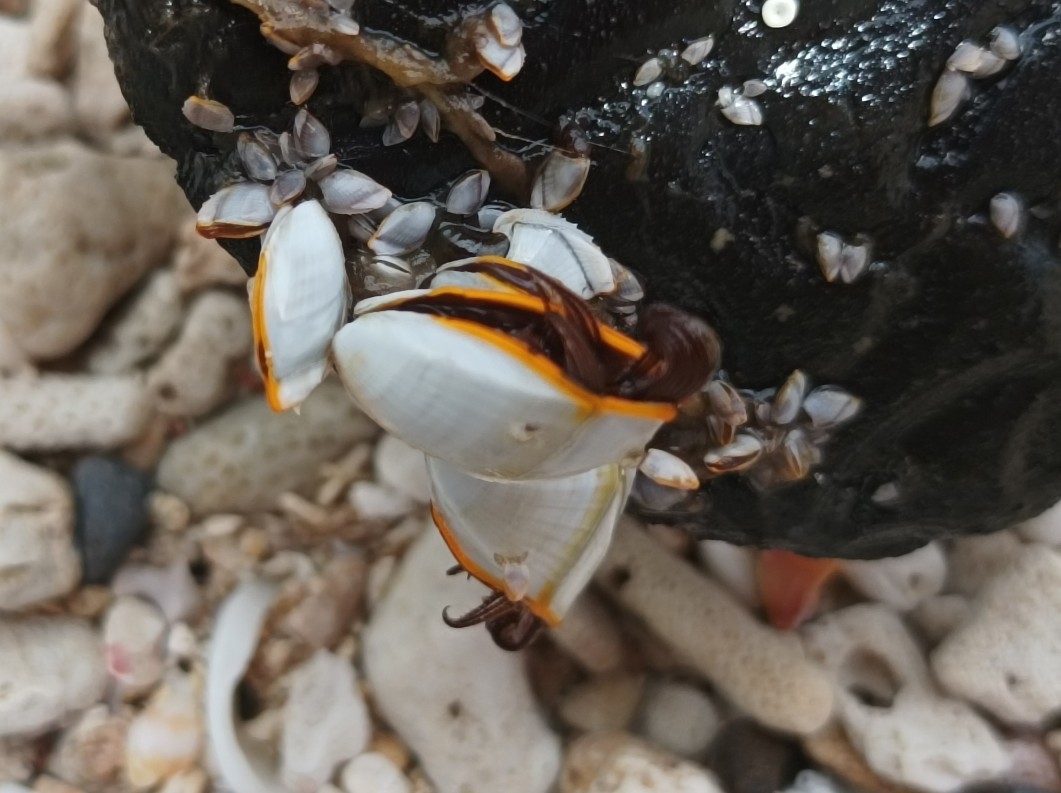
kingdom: Animalia
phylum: Arthropoda
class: Maxillopoda
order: Pedunculata
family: Lepadidae
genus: Lepas
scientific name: Lepas anserifera
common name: Goose barnacle
